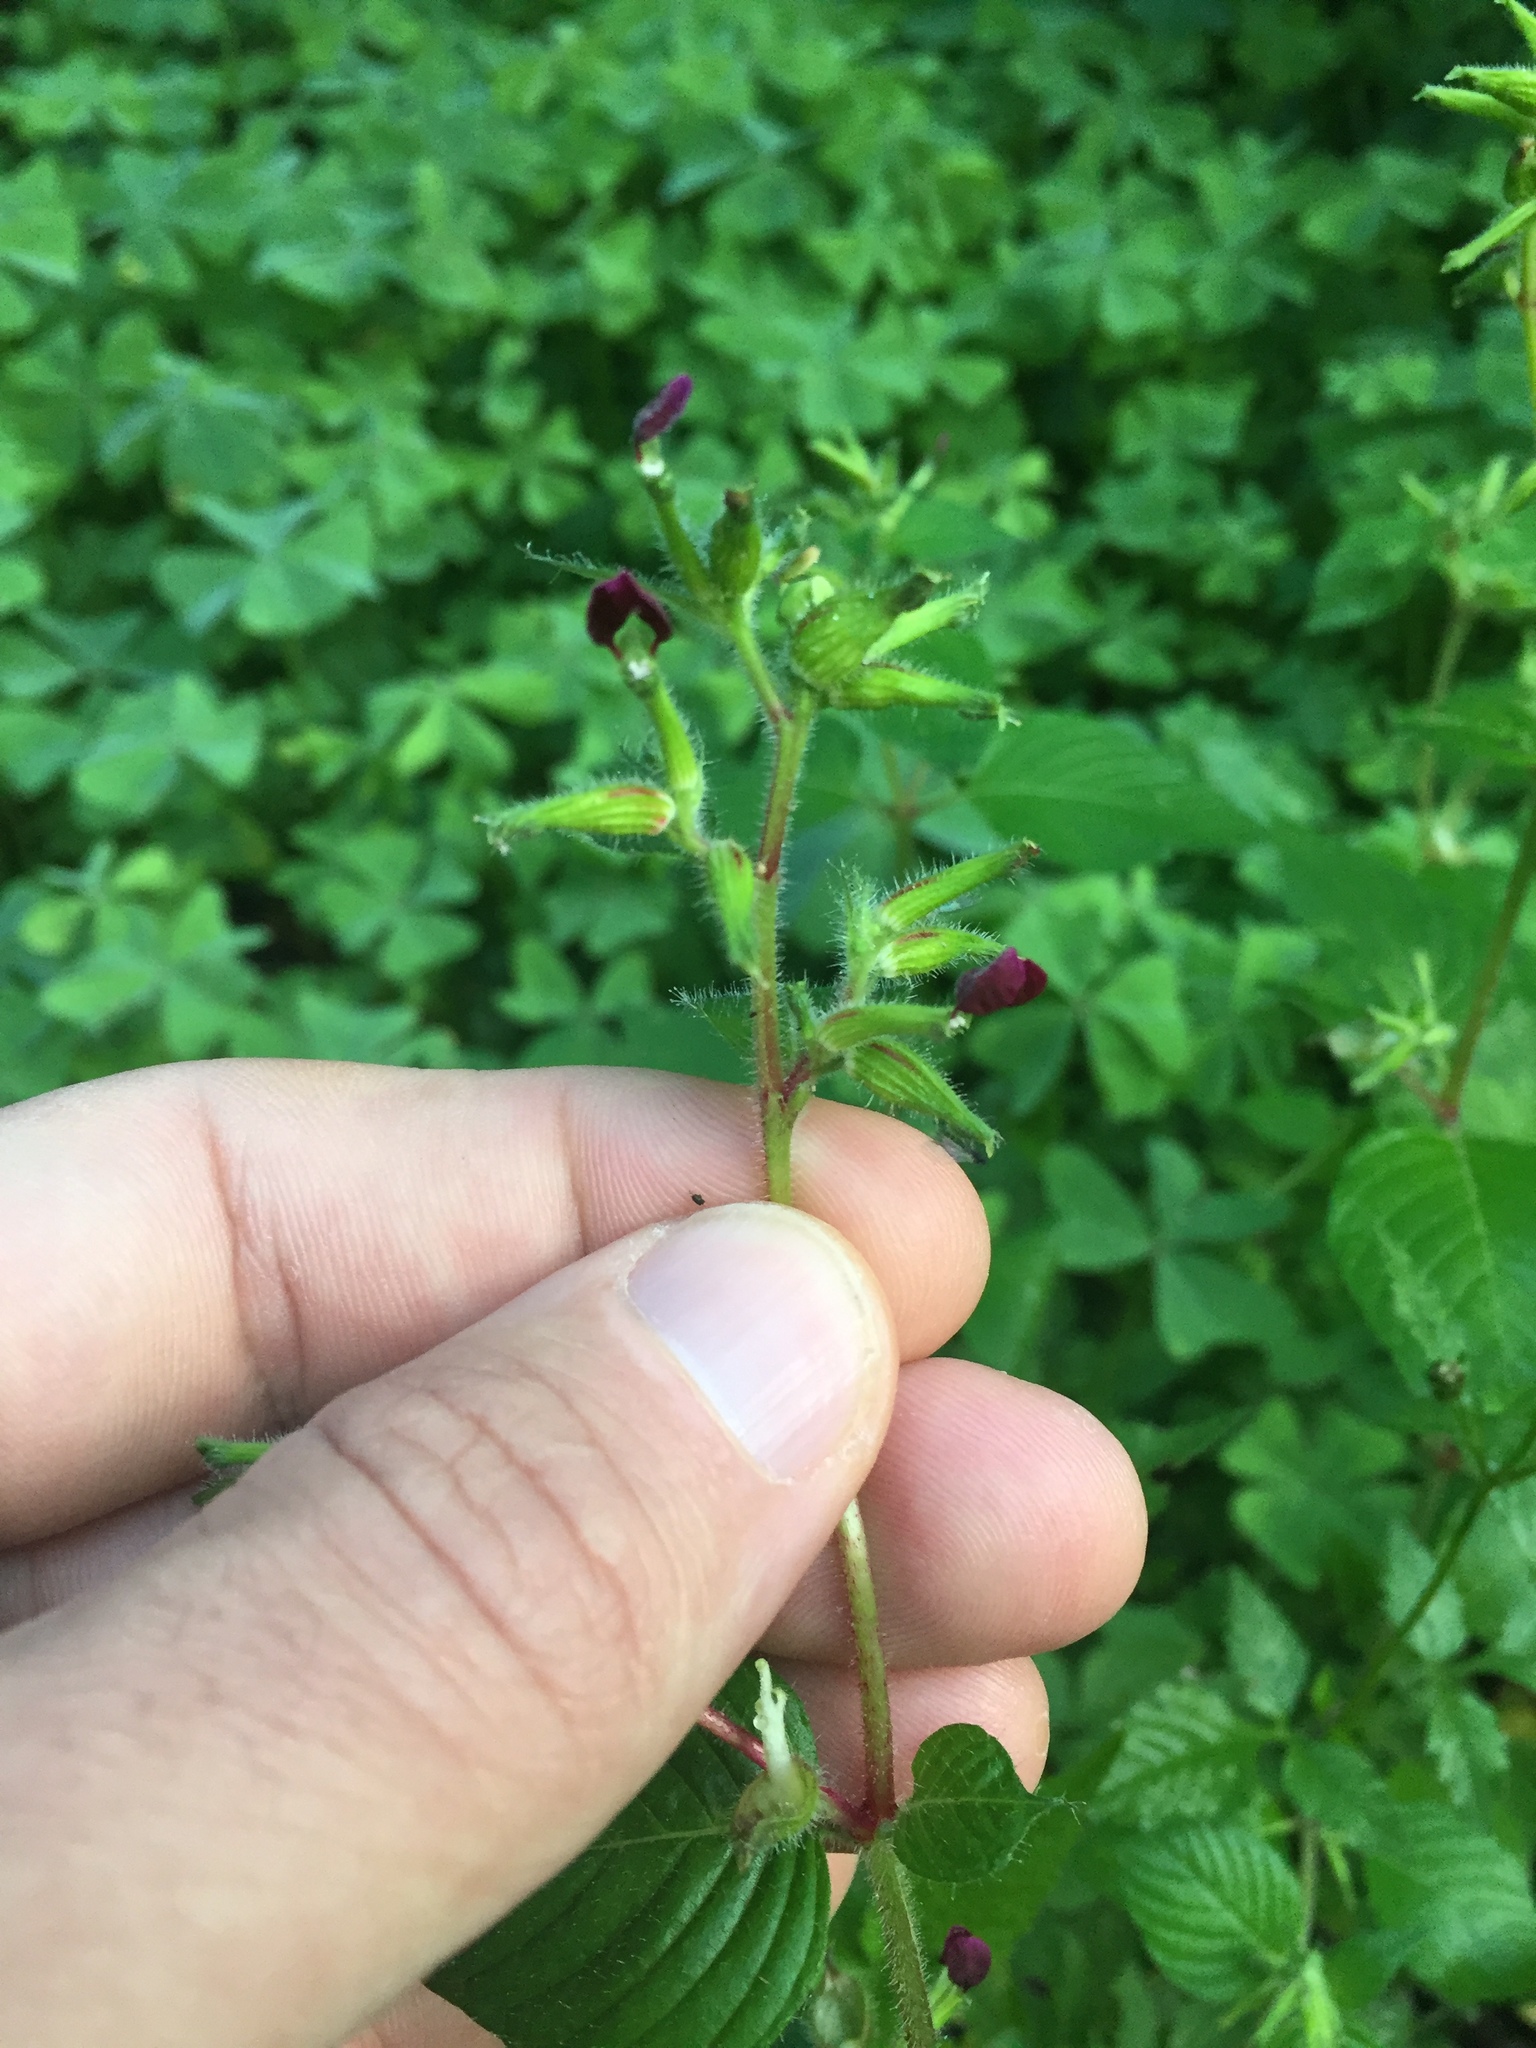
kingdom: Plantae
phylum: Tracheophyta
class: Magnoliopsida
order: Myrtales
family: Lythraceae
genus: Cuphea
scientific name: Cuphea paucipetala
